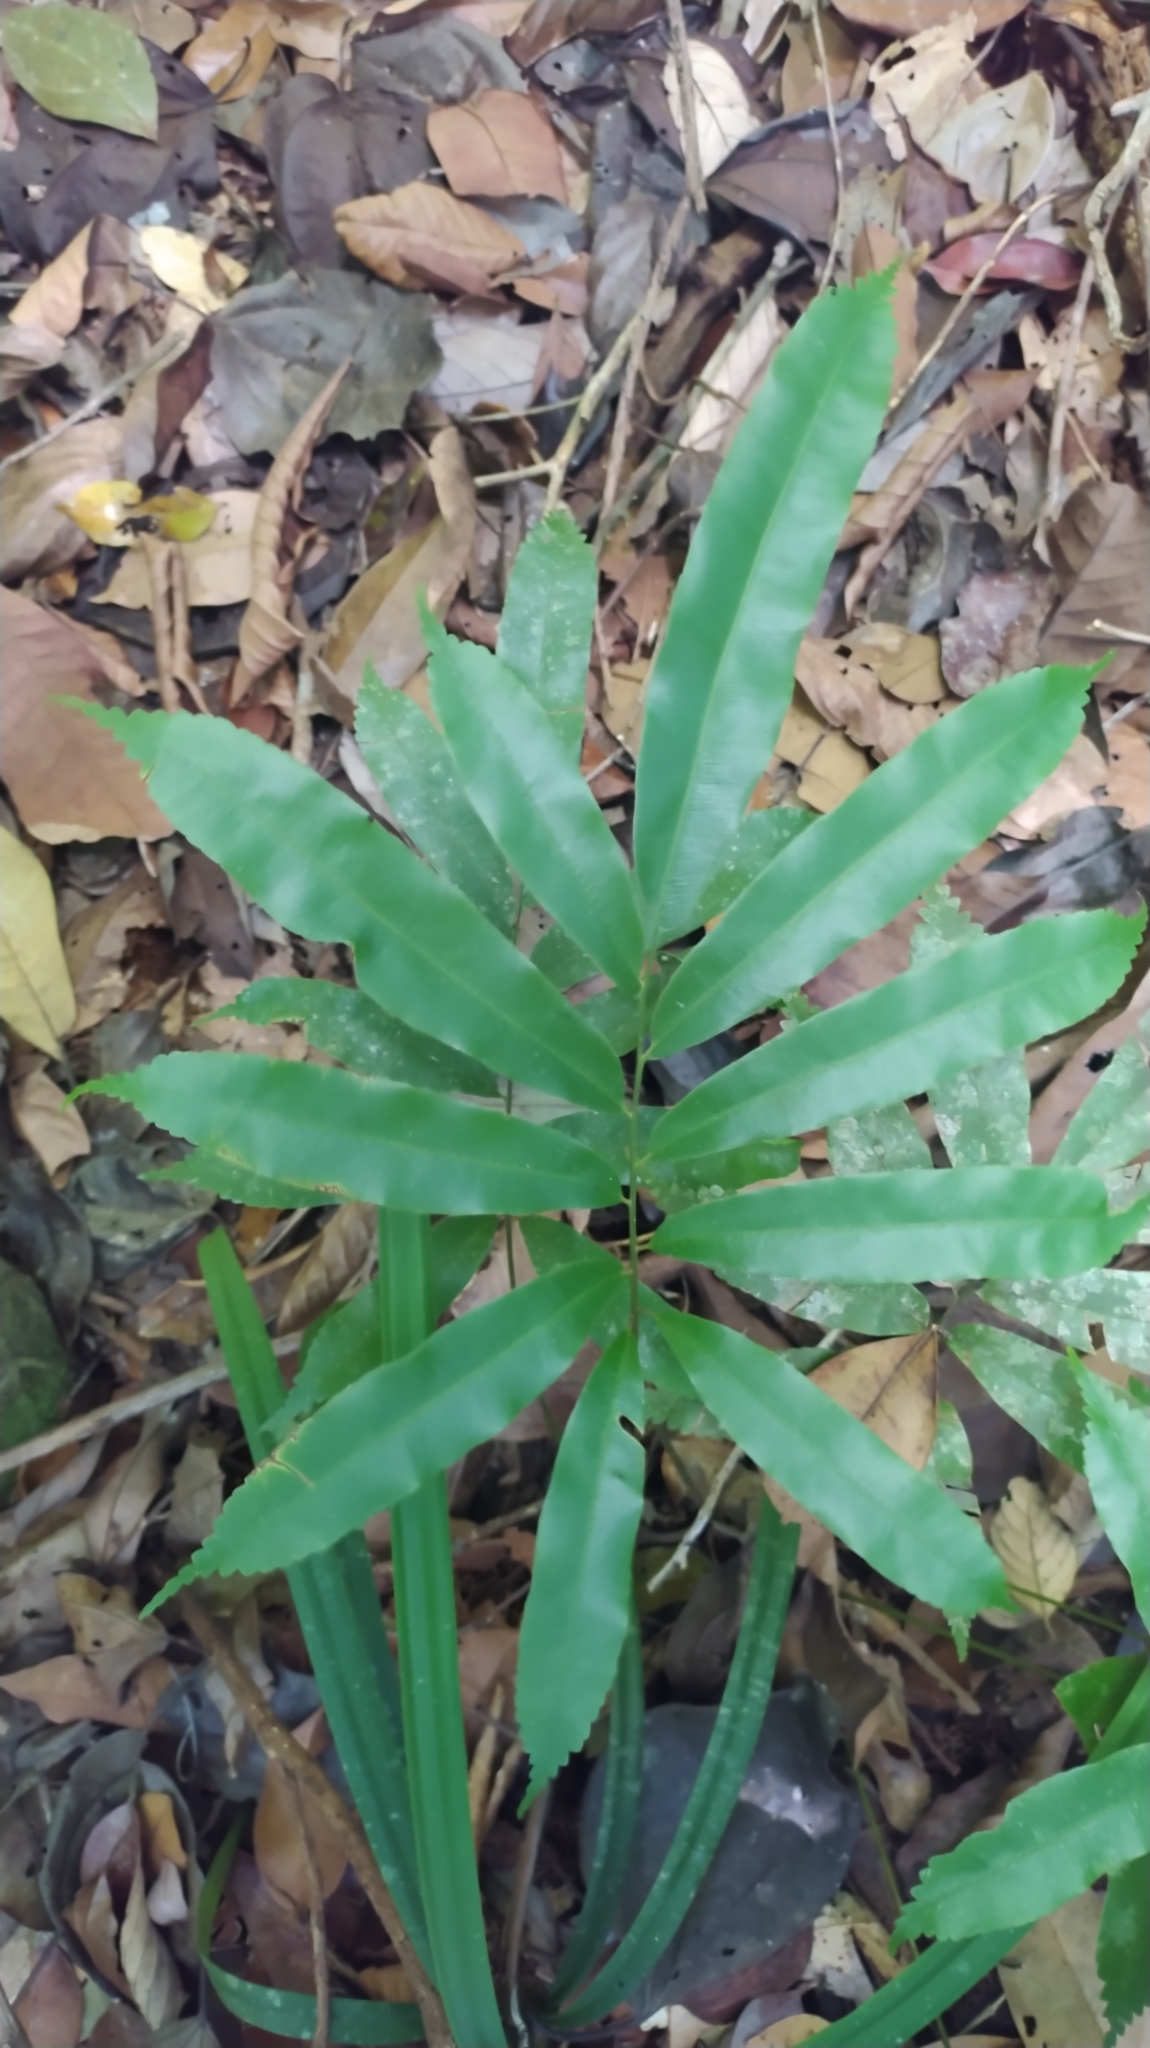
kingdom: Plantae
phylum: Tracheophyta
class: Polypodiopsida
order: Cyatheales
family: Metaxyaceae
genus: Metaxya
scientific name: Metaxya scalaris
